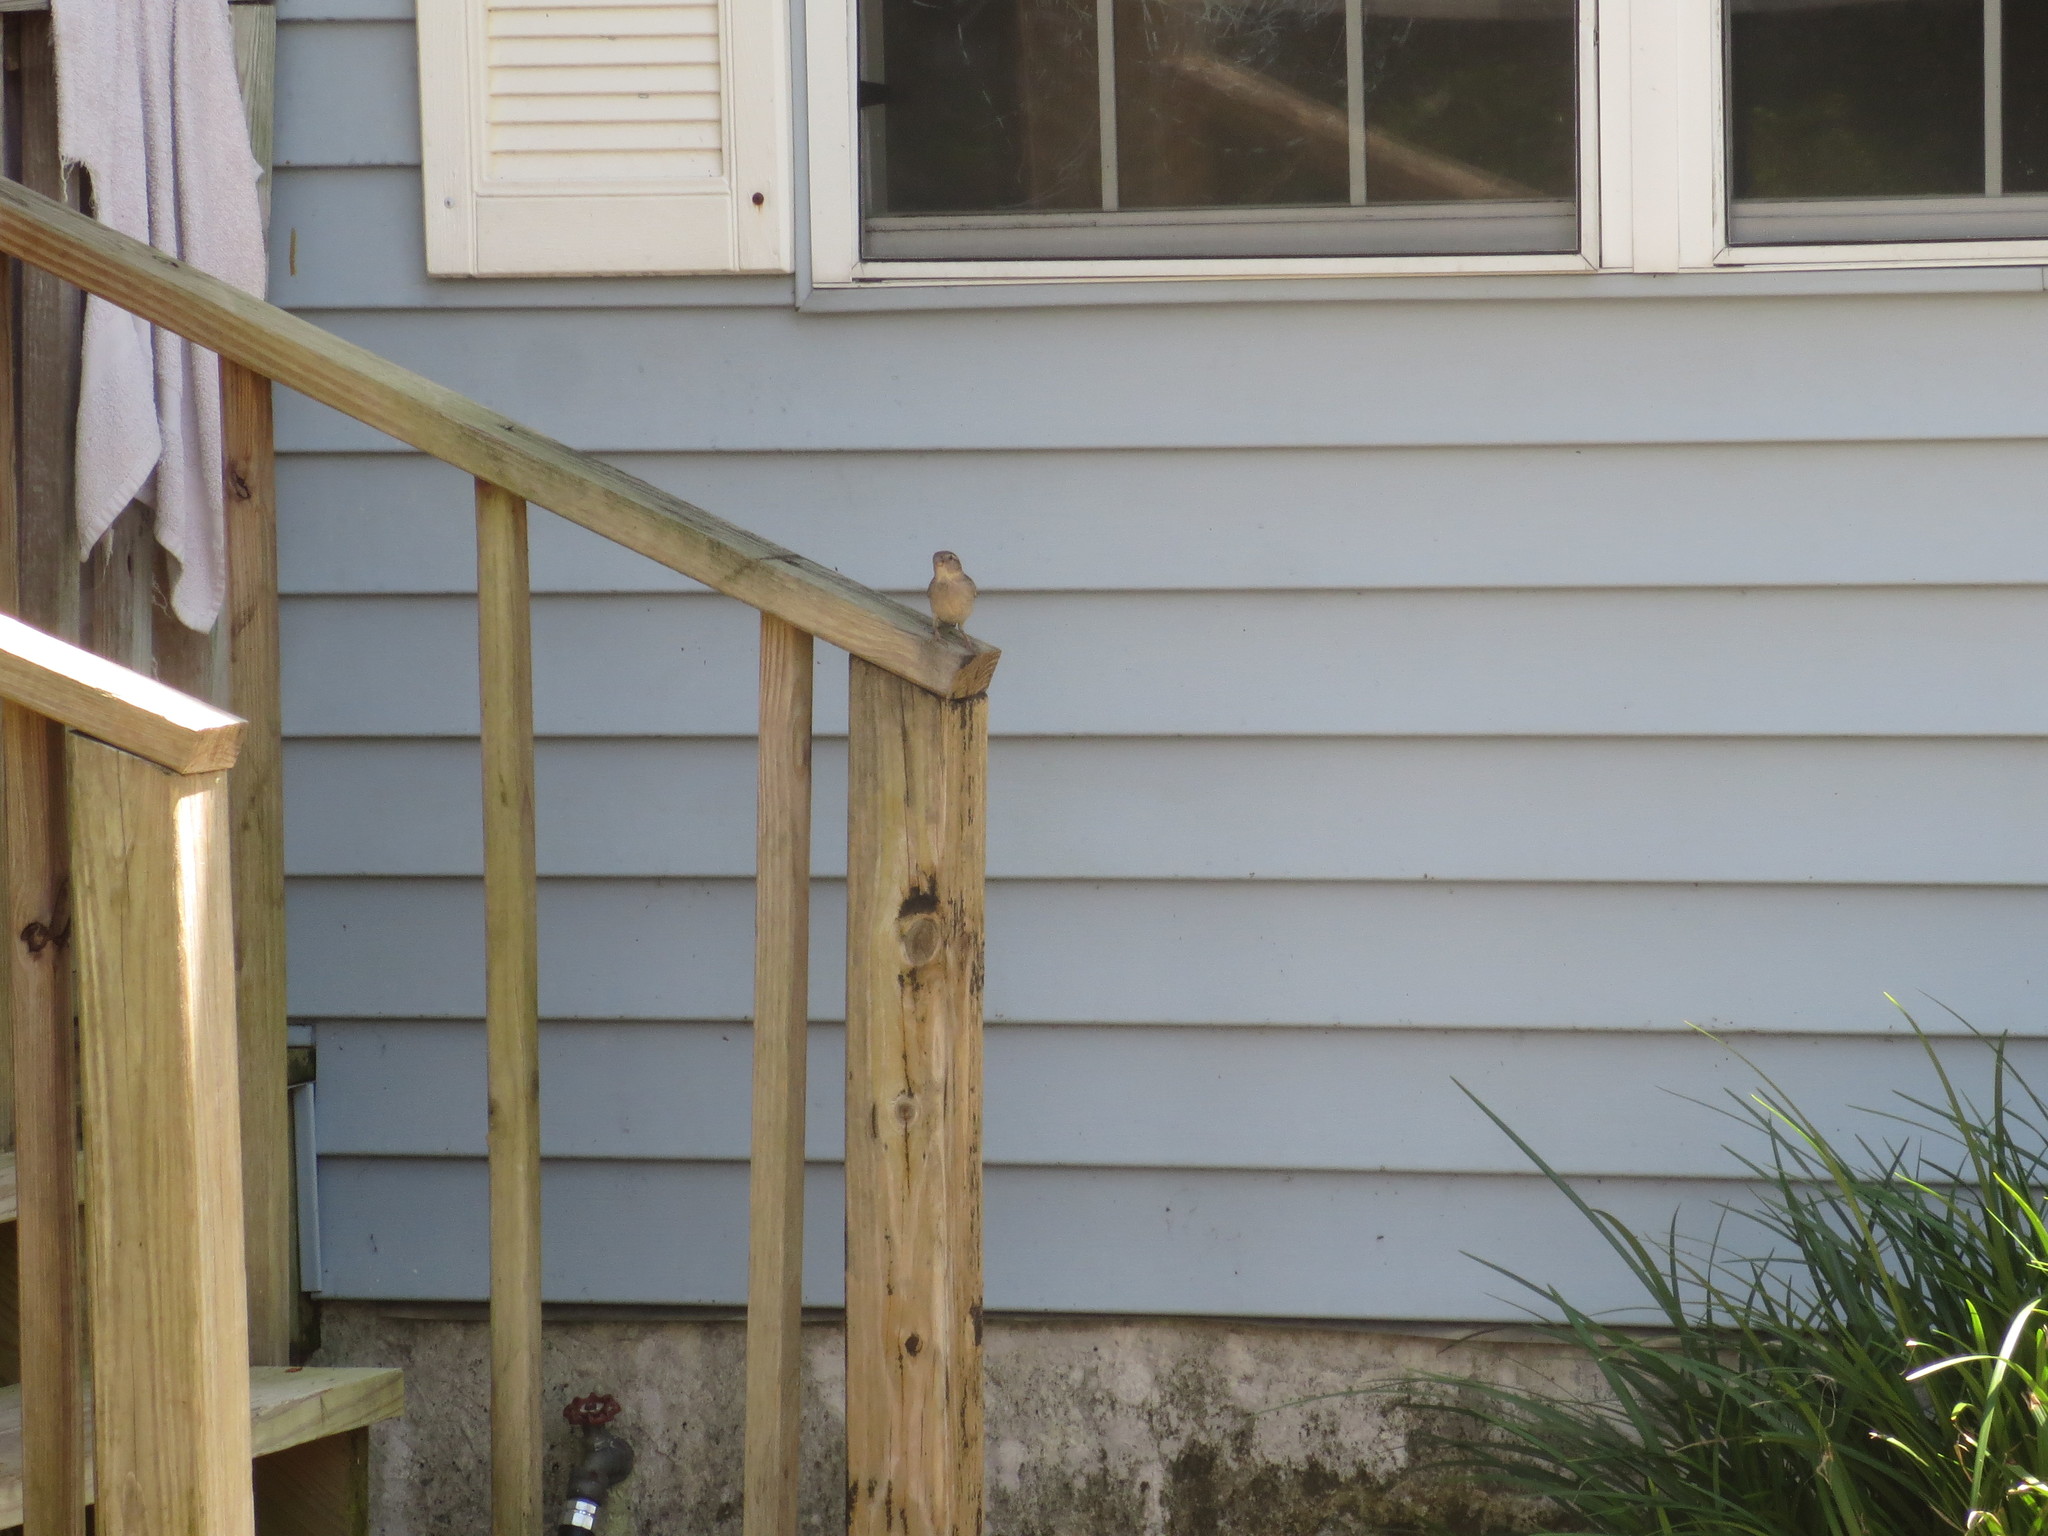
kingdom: Animalia
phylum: Chordata
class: Aves
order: Passeriformes
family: Passeridae
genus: Passer
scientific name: Passer domesticus
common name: House sparrow
